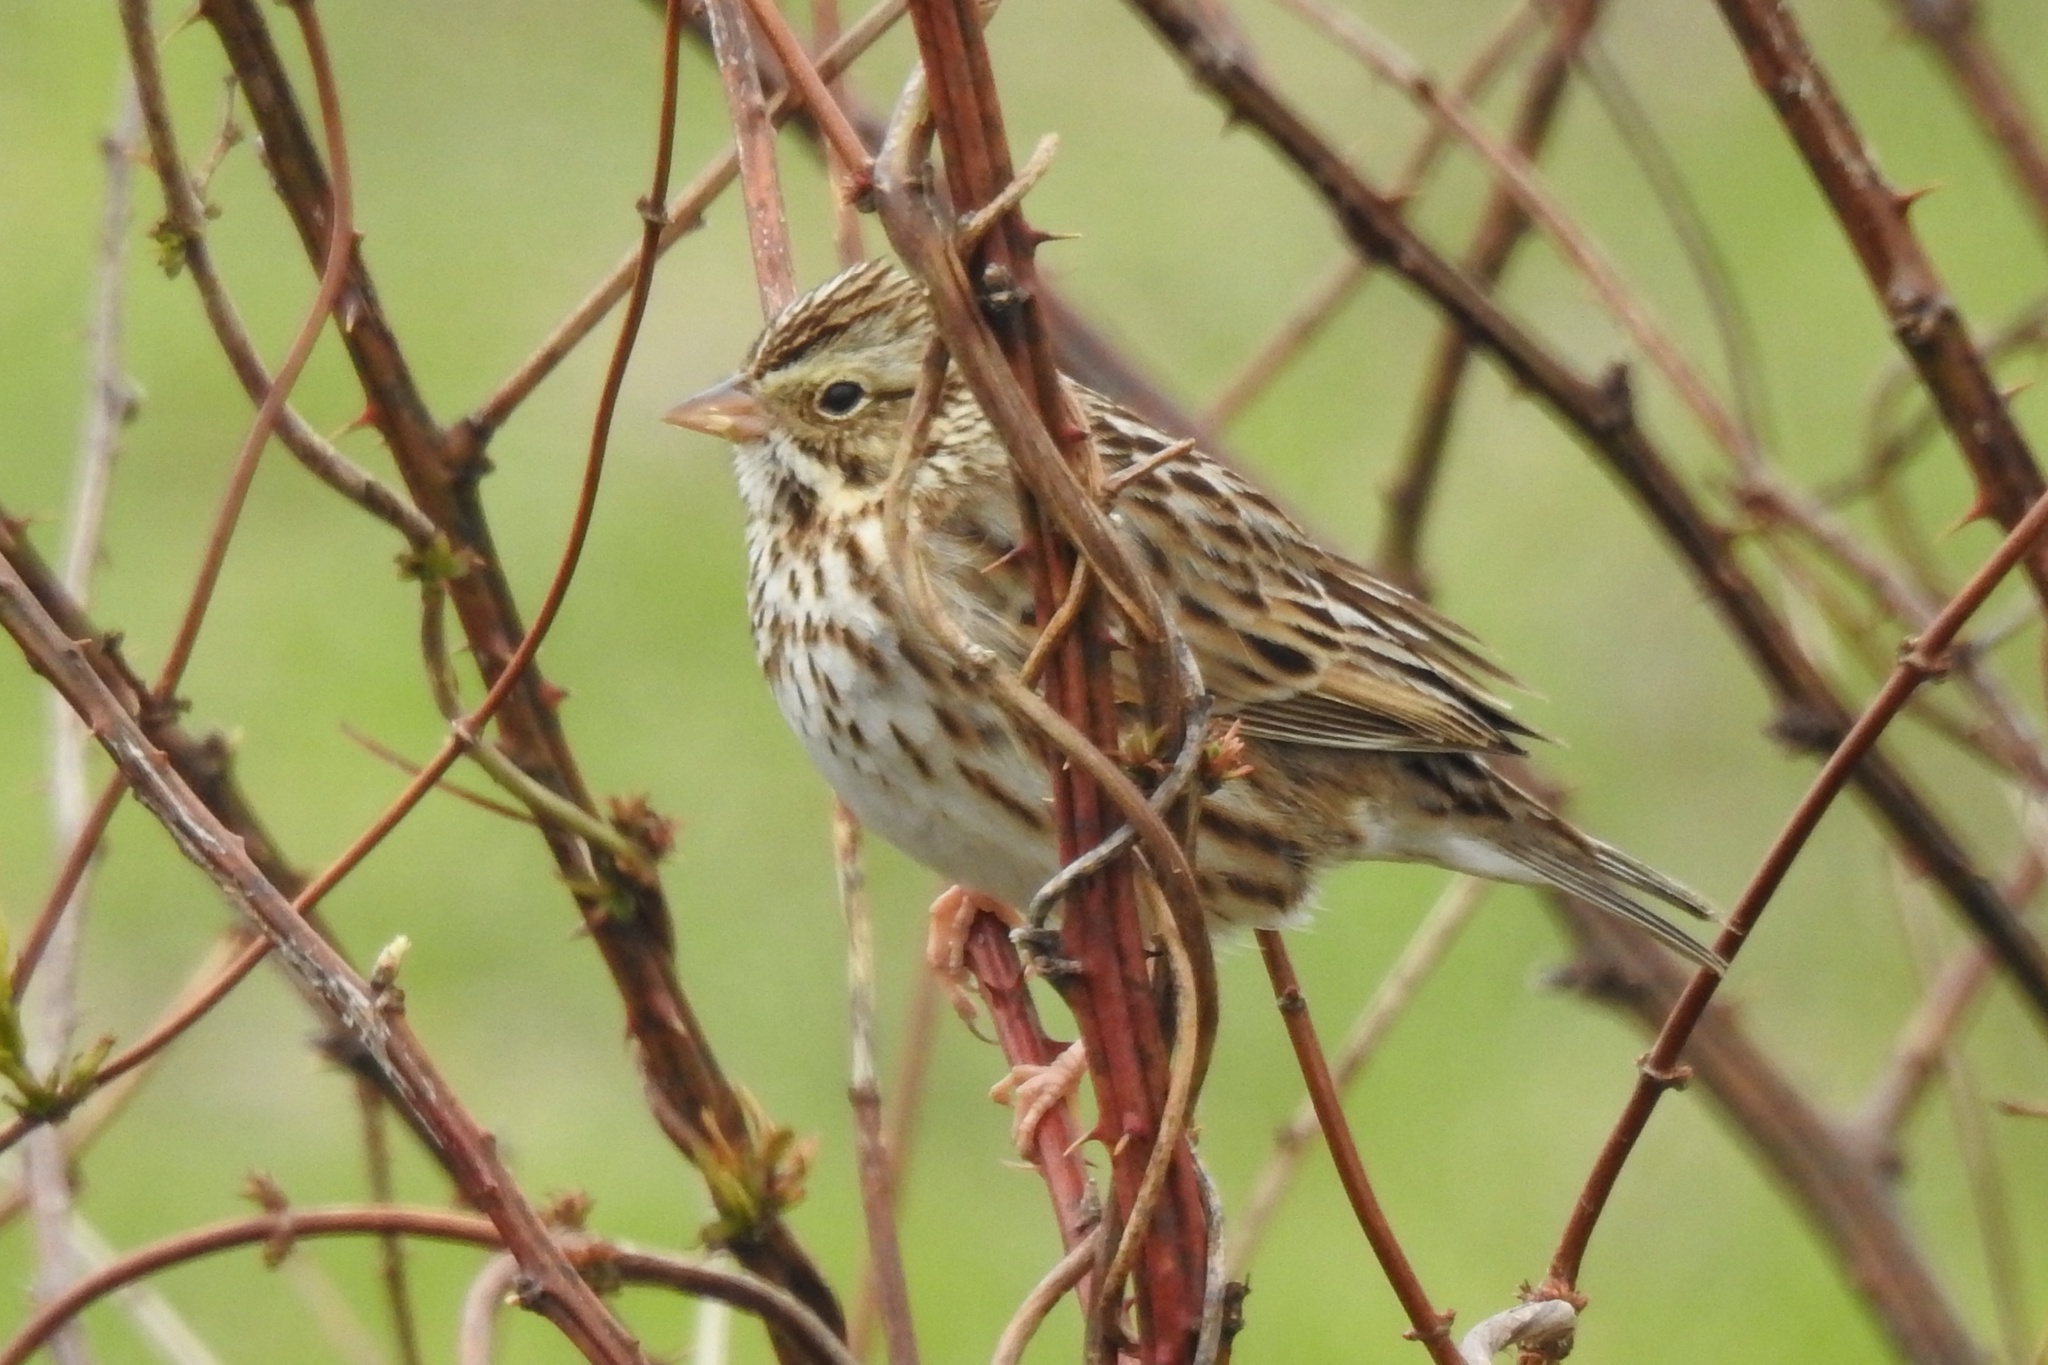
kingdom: Animalia
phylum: Chordata
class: Aves
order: Passeriformes
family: Passerellidae
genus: Melospiza
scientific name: Melospiza melodia
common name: Song sparrow
